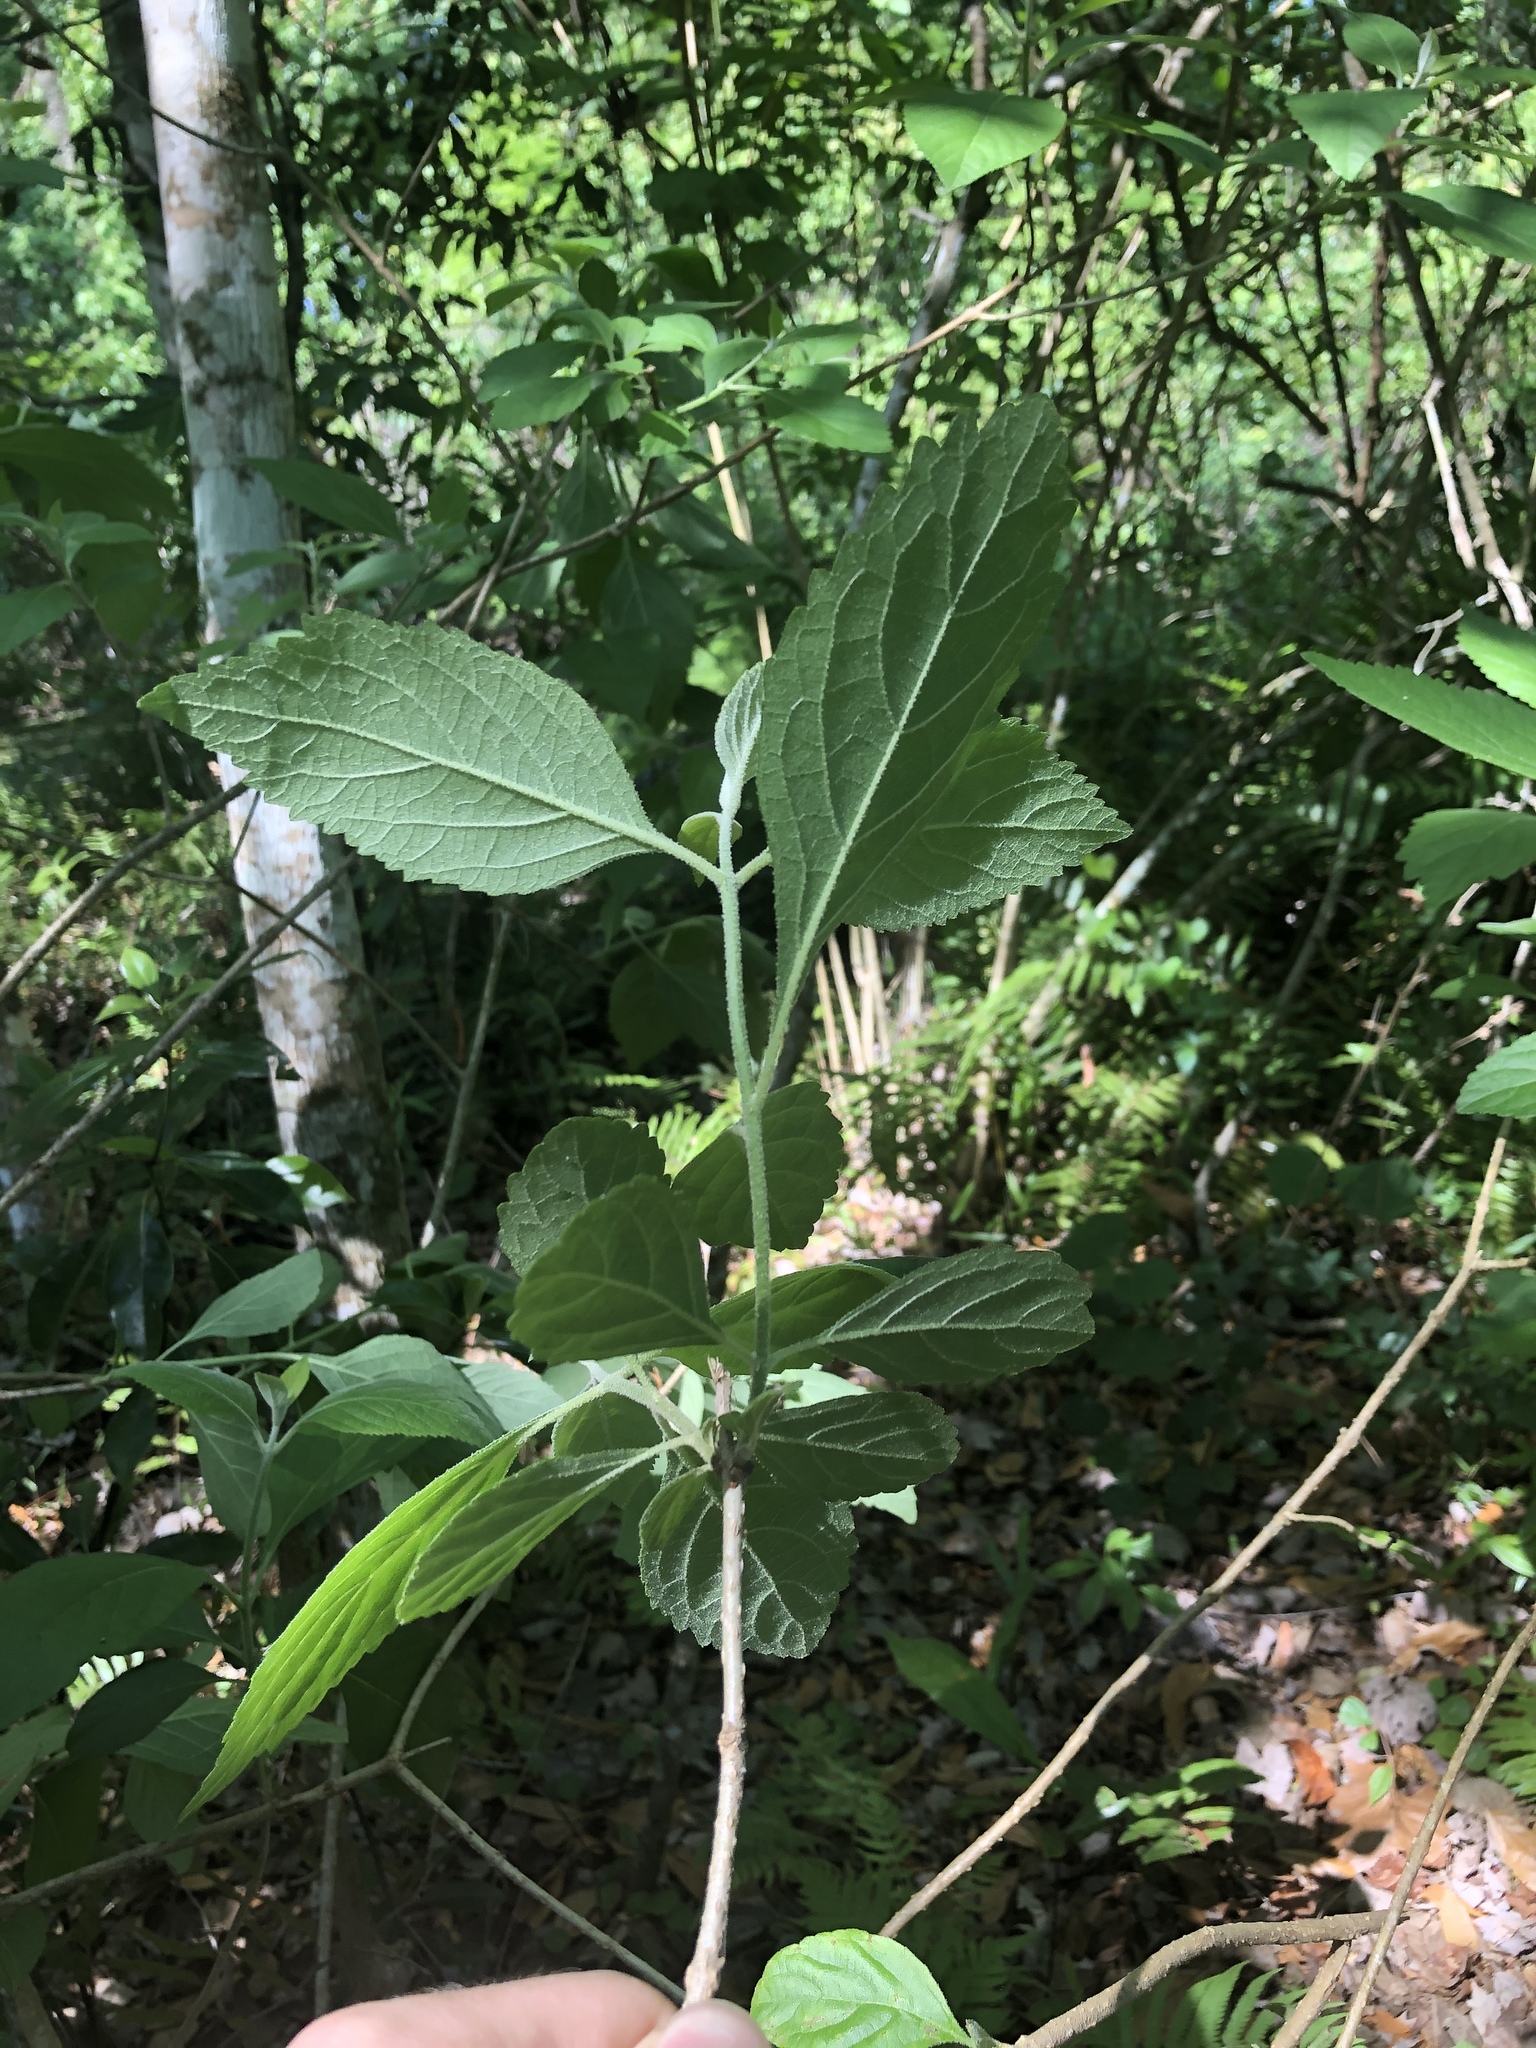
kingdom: Plantae
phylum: Tracheophyta
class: Magnoliopsida
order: Lamiales
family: Lamiaceae
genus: Callicarpa
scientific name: Callicarpa americana
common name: American beautyberry
